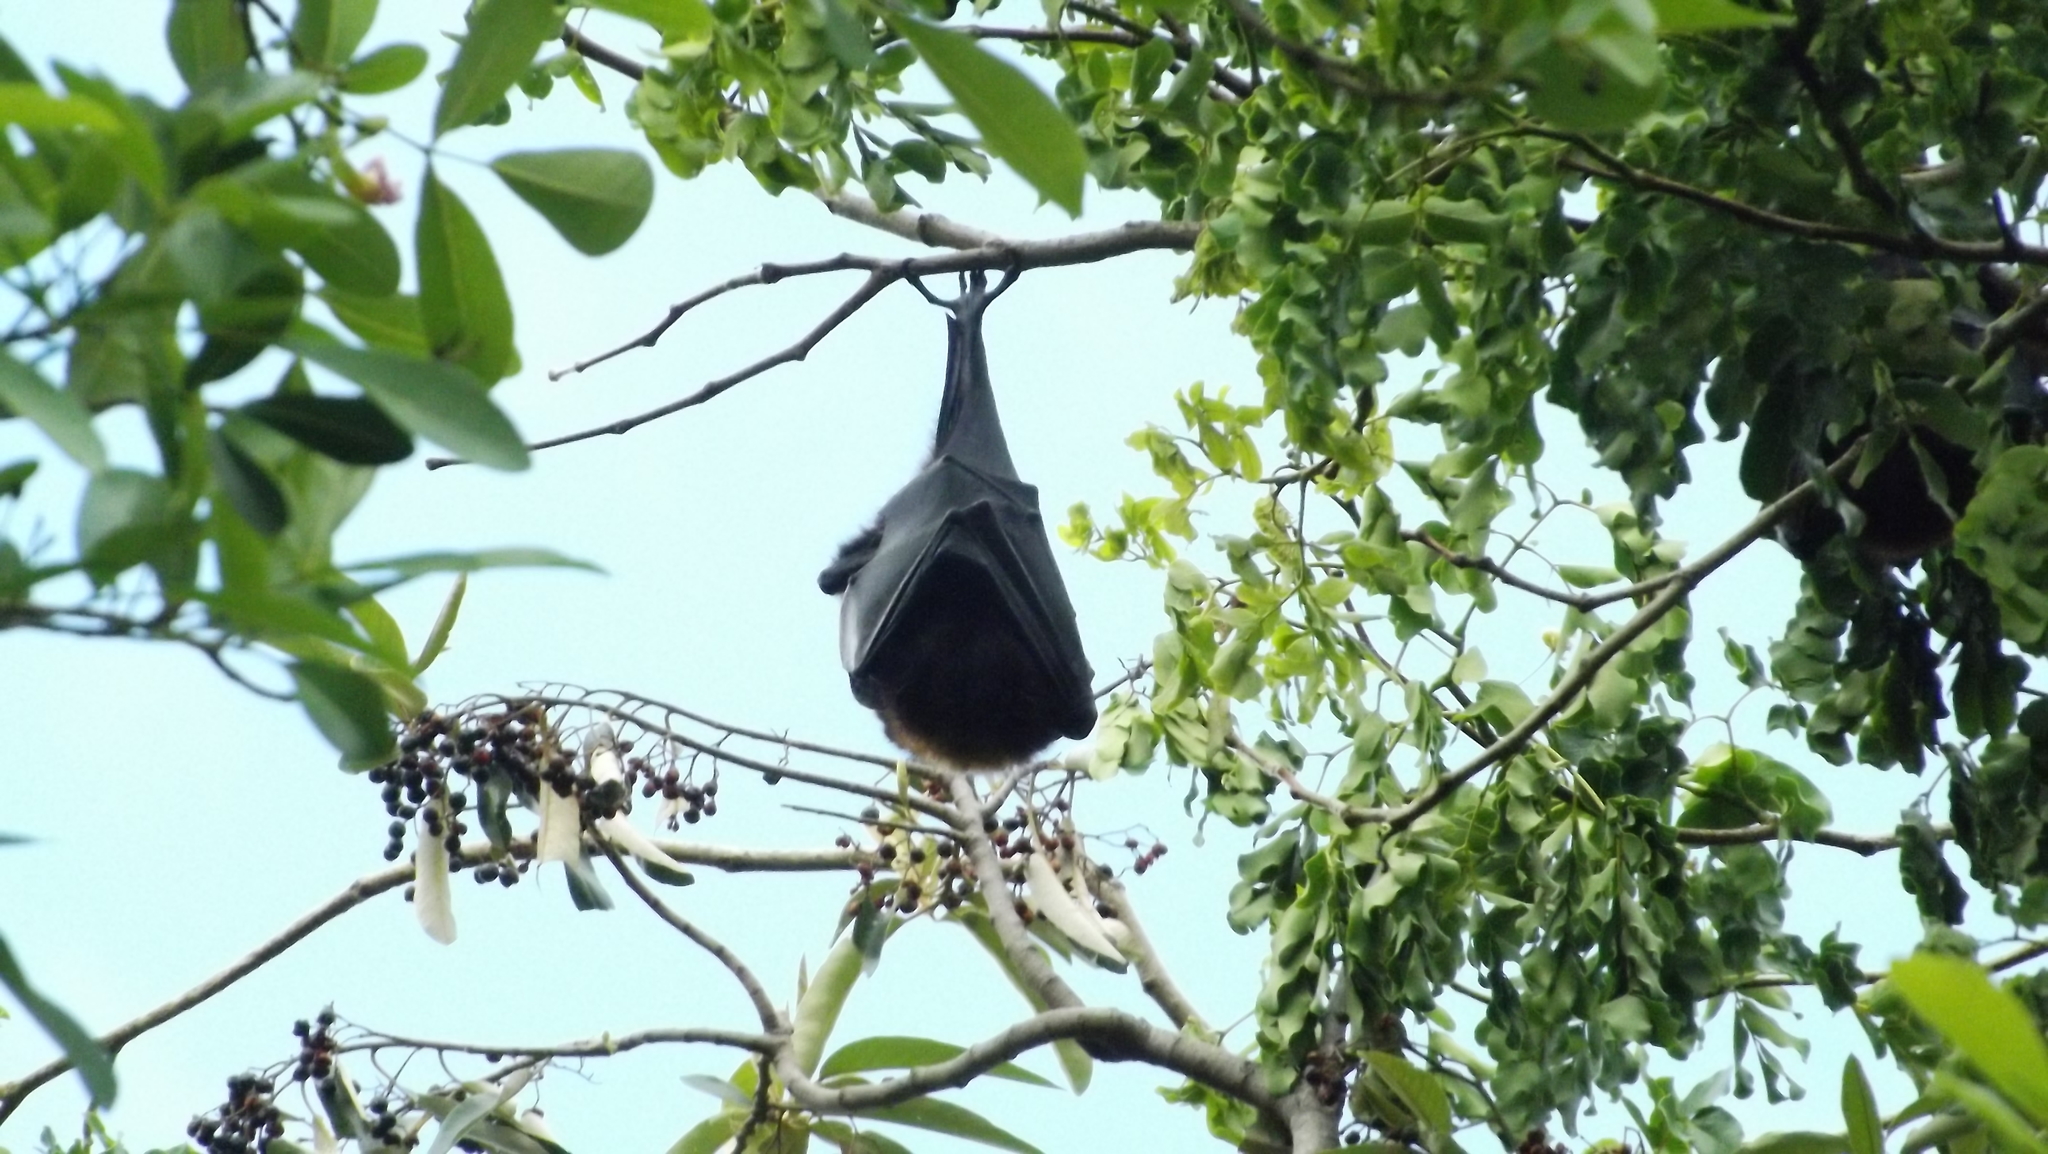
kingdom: Animalia
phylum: Chordata
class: Mammalia
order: Chiroptera
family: Pteropodidae
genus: Pteropus
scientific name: Pteropus alecto
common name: Black flying fox
